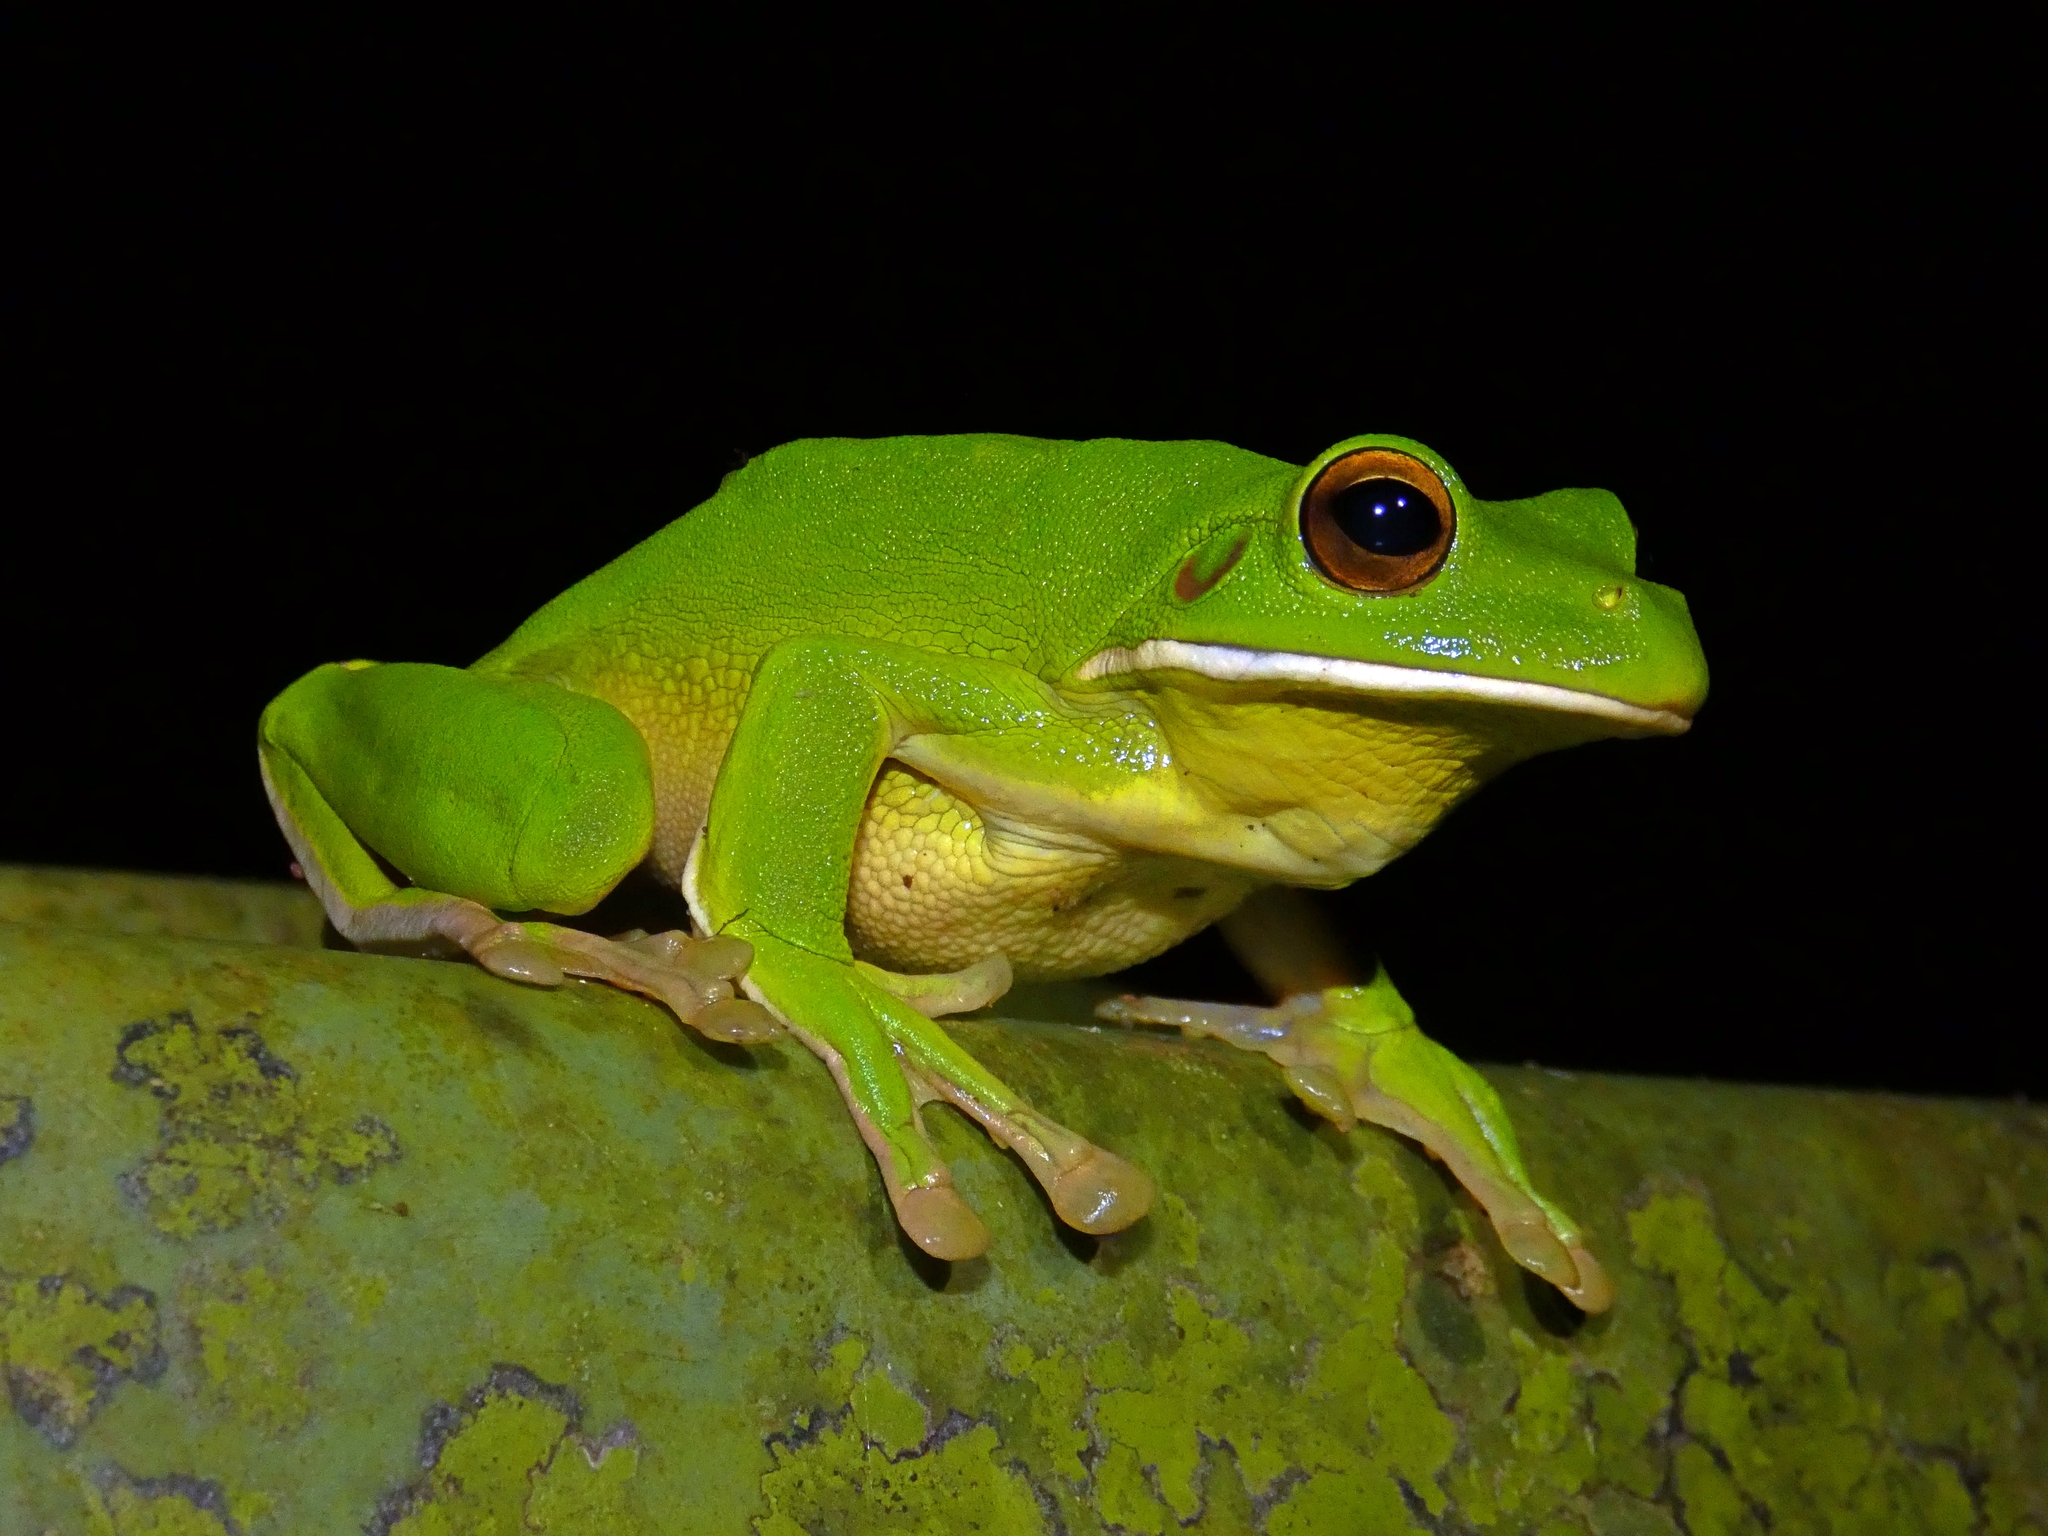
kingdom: Animalia
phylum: Chordata
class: Amphibia
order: Anura
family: Pelodryadidae
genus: Nyctimystes
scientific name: Nyctimystes infrafrenatus
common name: Australian giant treefrog
